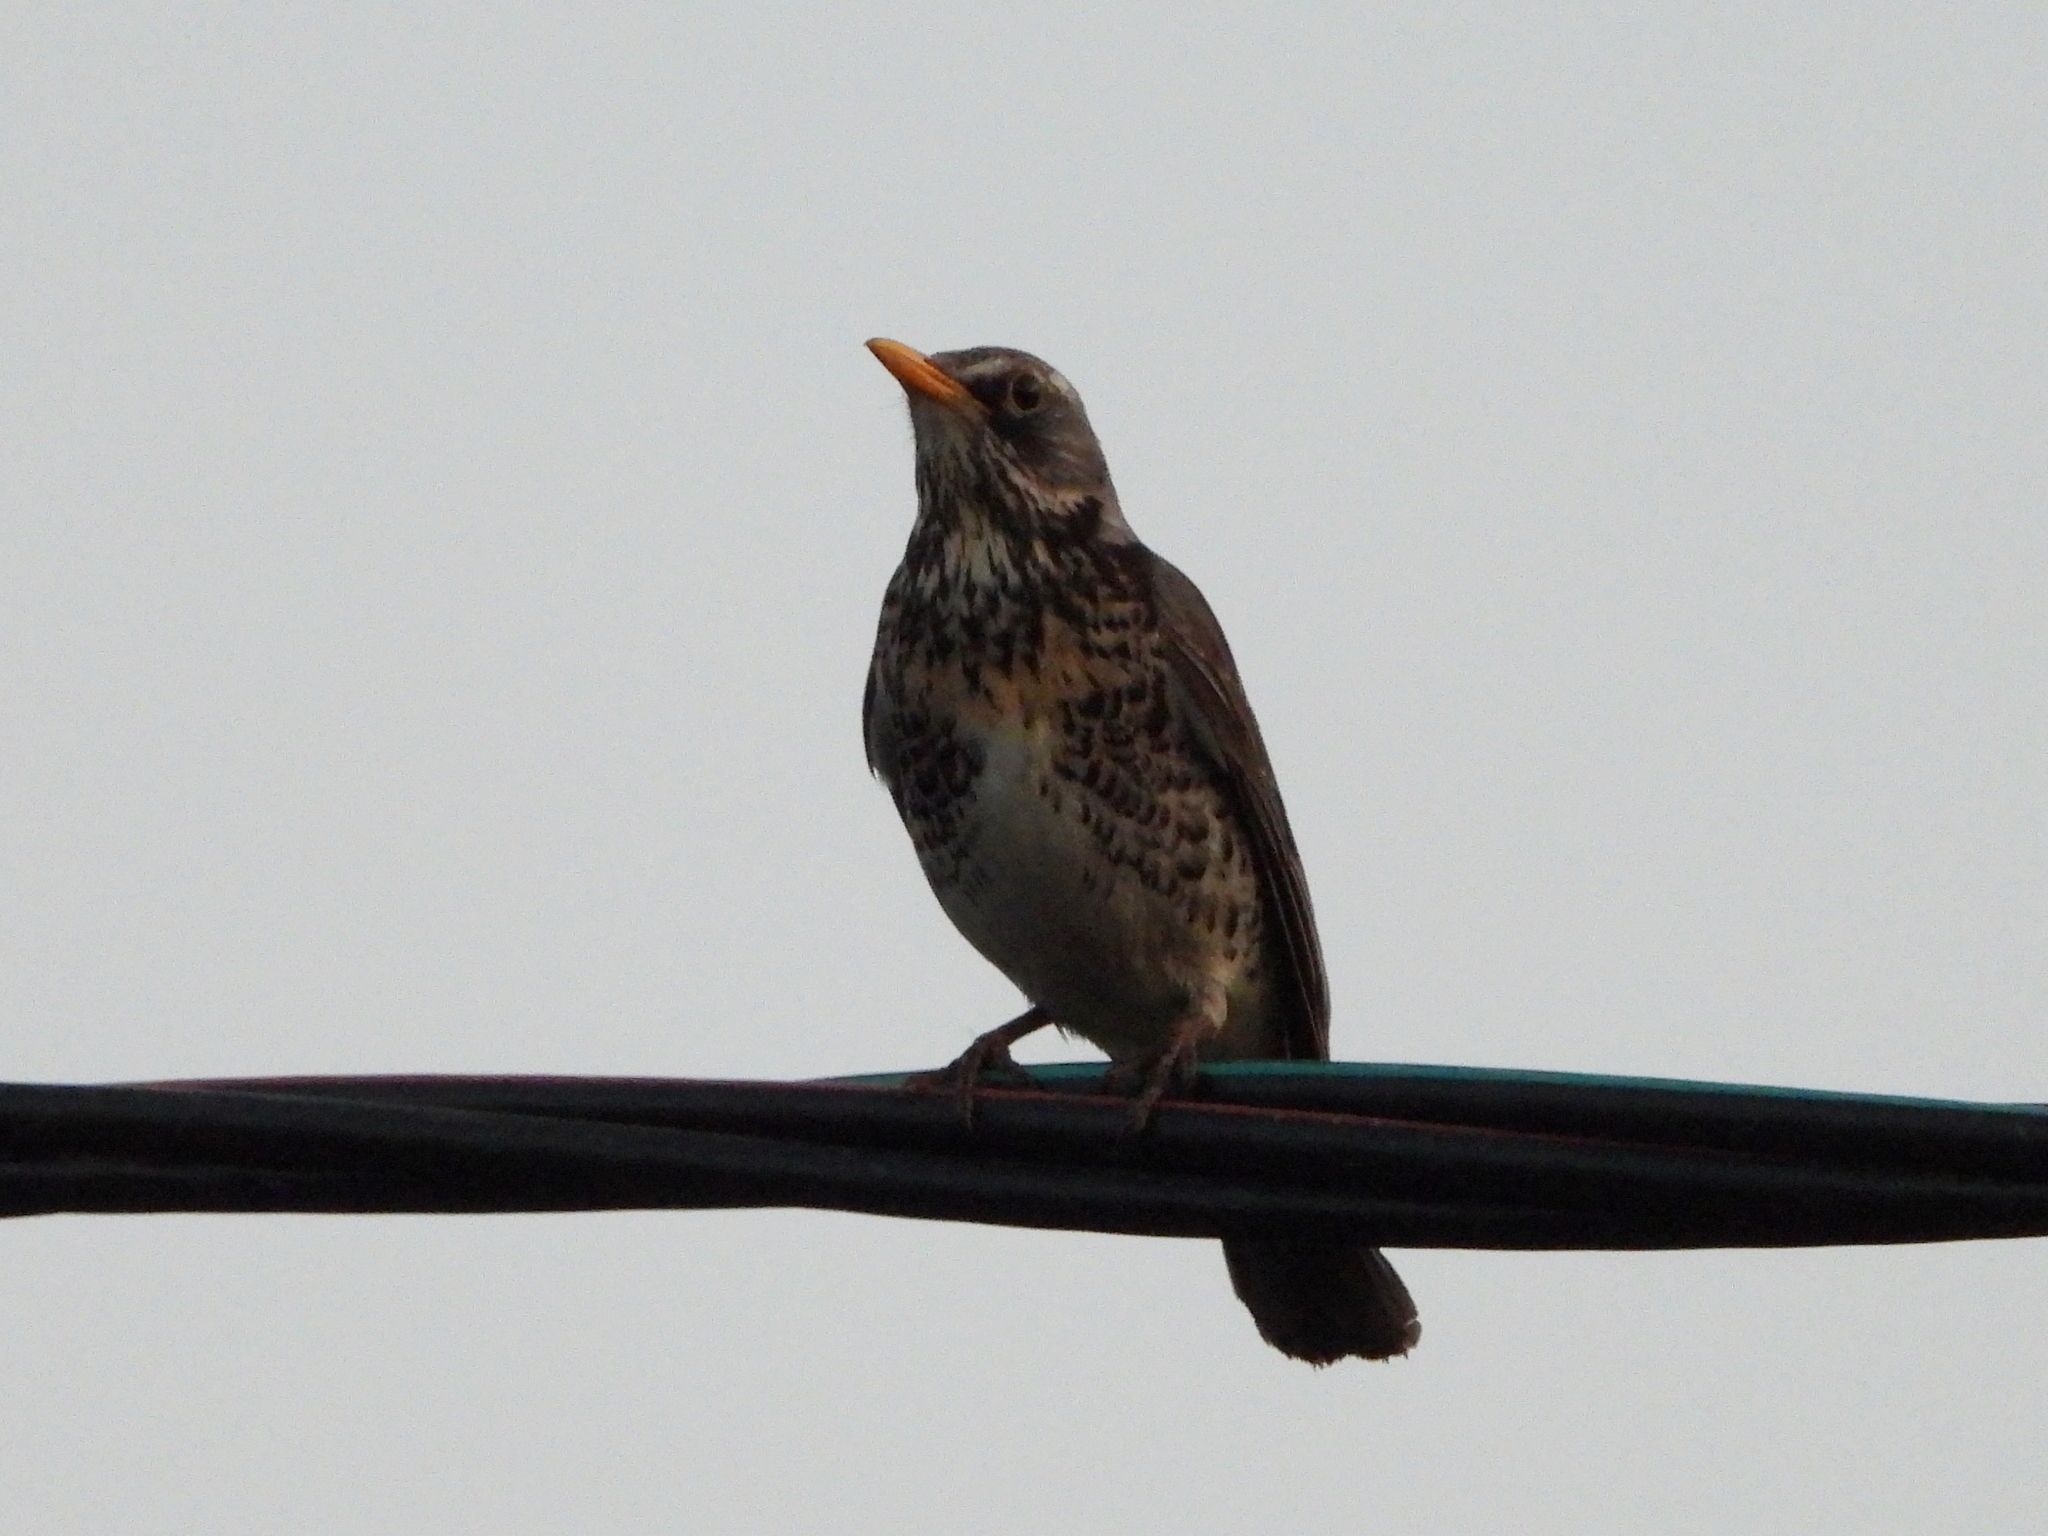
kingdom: Animalia
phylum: Chordata
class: Aves
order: Passeriformes
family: Turdidae
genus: Turdus
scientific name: Turdus pilaris
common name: Fieldfare
